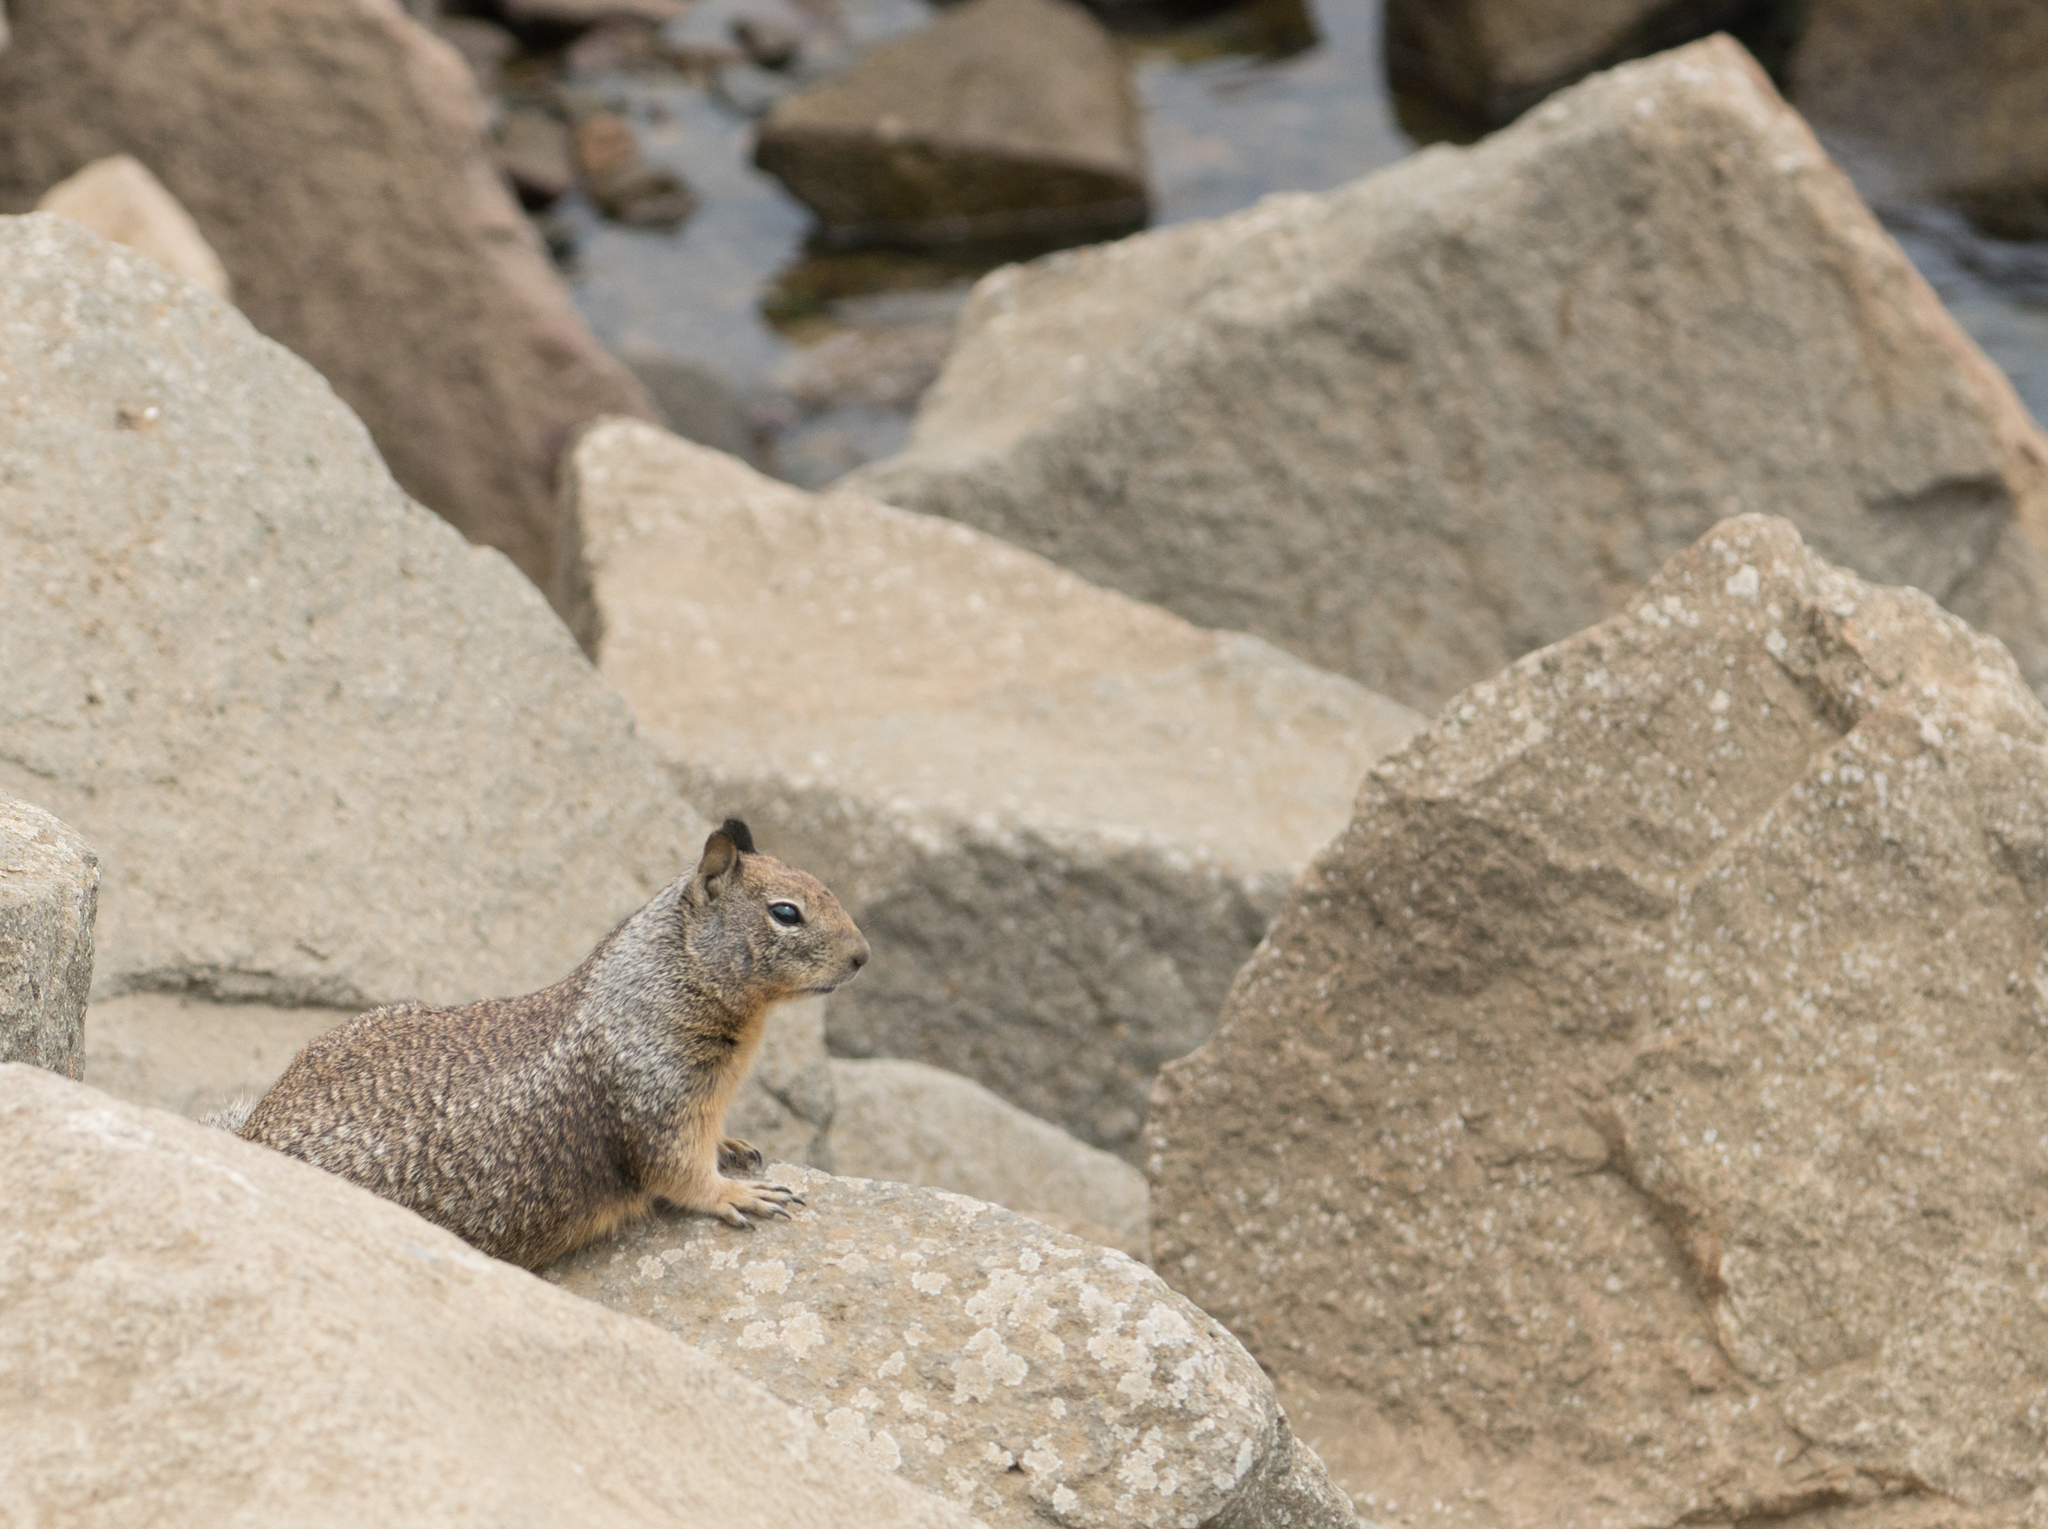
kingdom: Animalia
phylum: Chordata
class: Mammalia
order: Rodentia
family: Sciuridae
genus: Otospermophilus
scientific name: Otospermophilus beecheyi
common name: California ground squirrel
